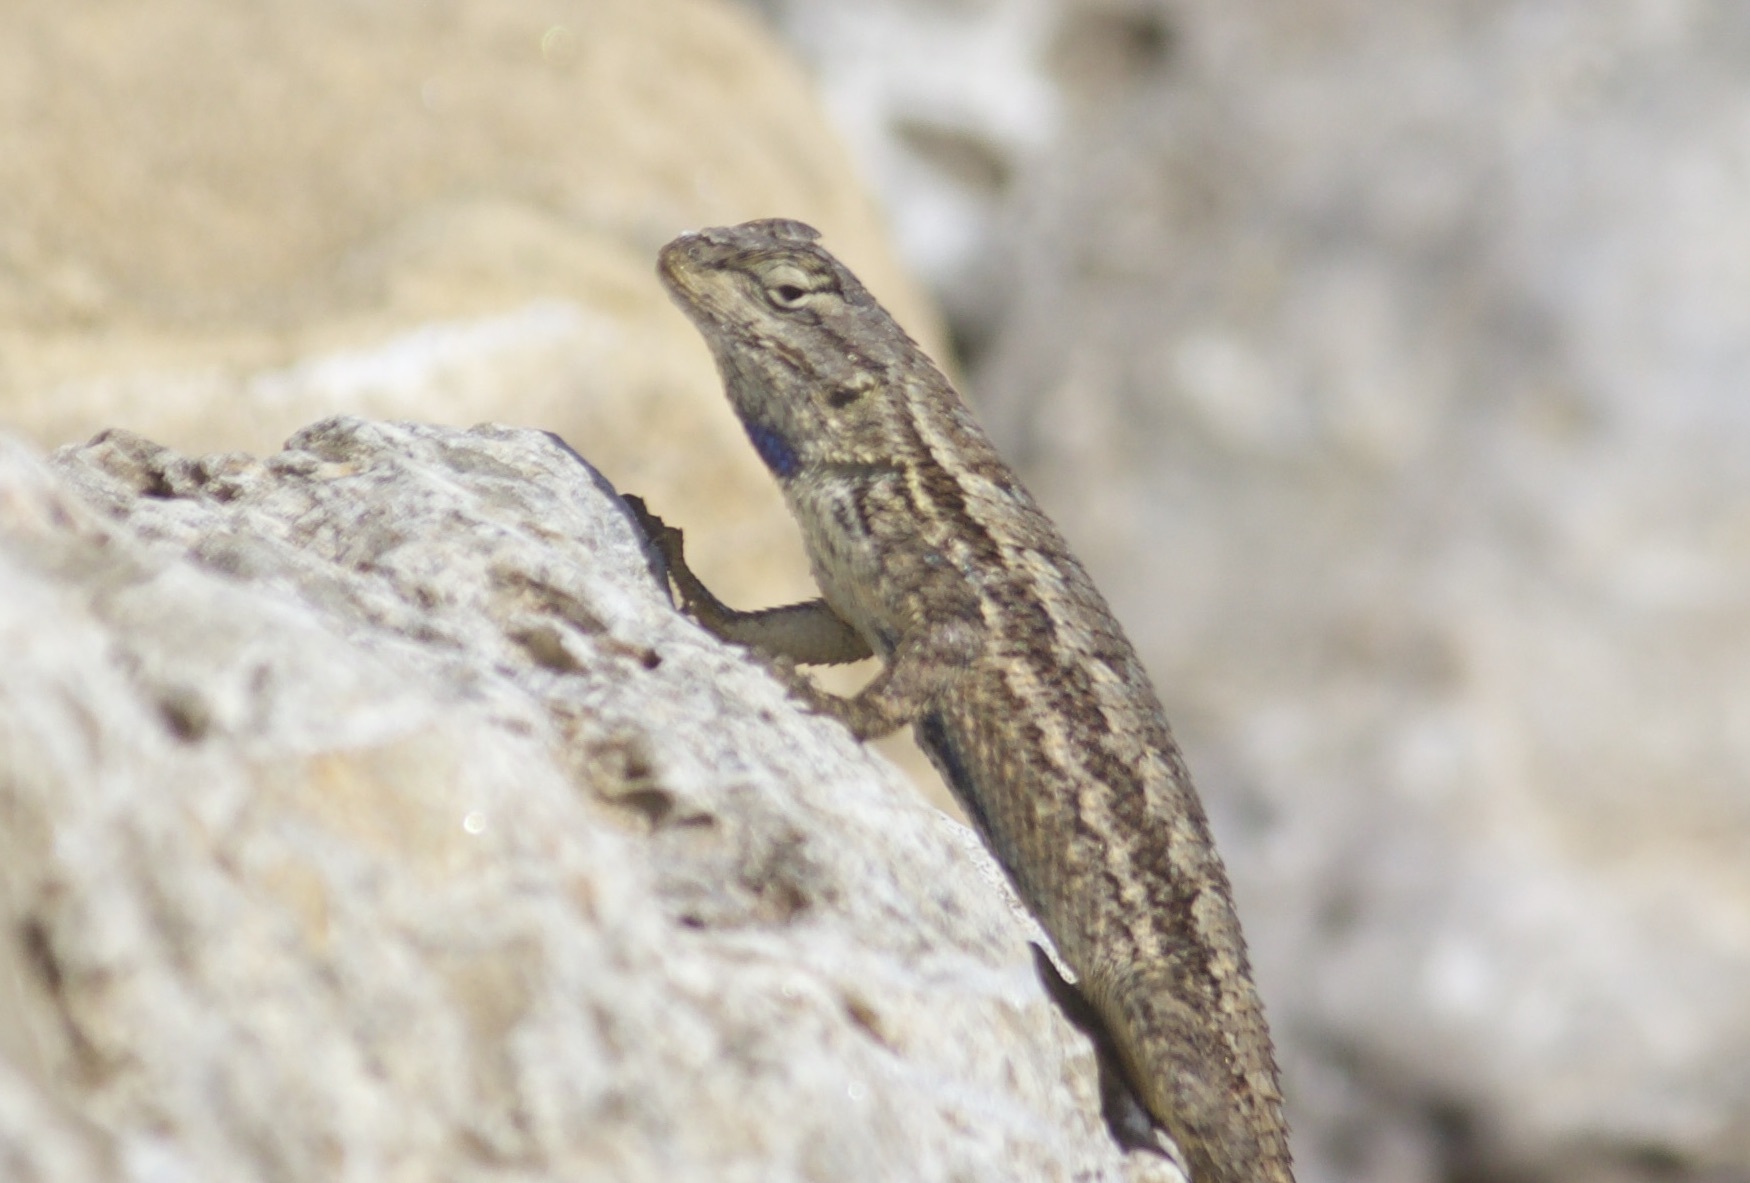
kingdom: Animalia
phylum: Chordata
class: Squamata
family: Phrynosomatidae
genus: Sceloporus
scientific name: Sceloporus occidentalis
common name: Western fence lizard
